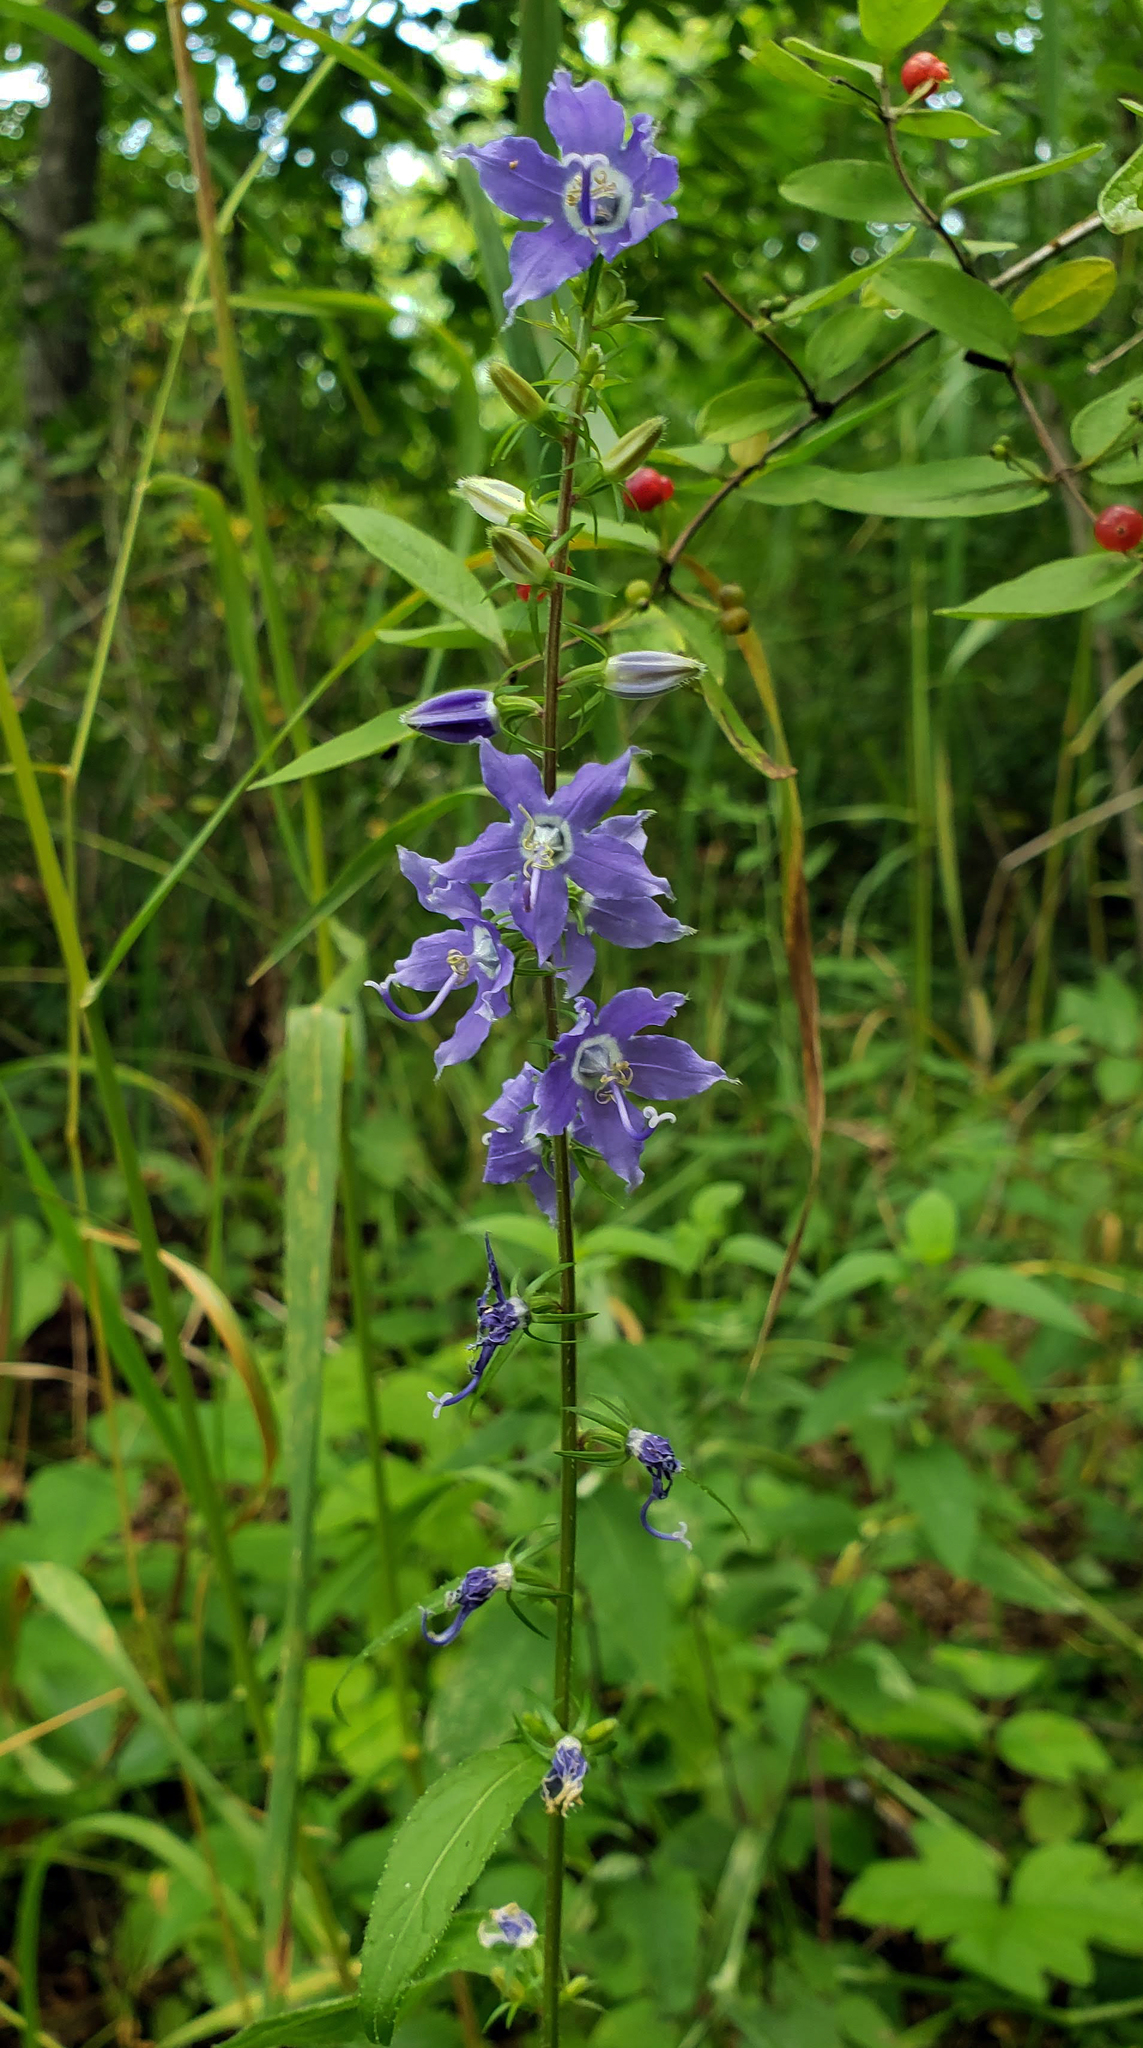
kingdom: Plantae
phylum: Tracheophyta
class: Magnoliopsida
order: Asterales
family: Campanulaceae
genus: Campanulastrum
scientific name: Campanulastrum americanum
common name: American bellflower
